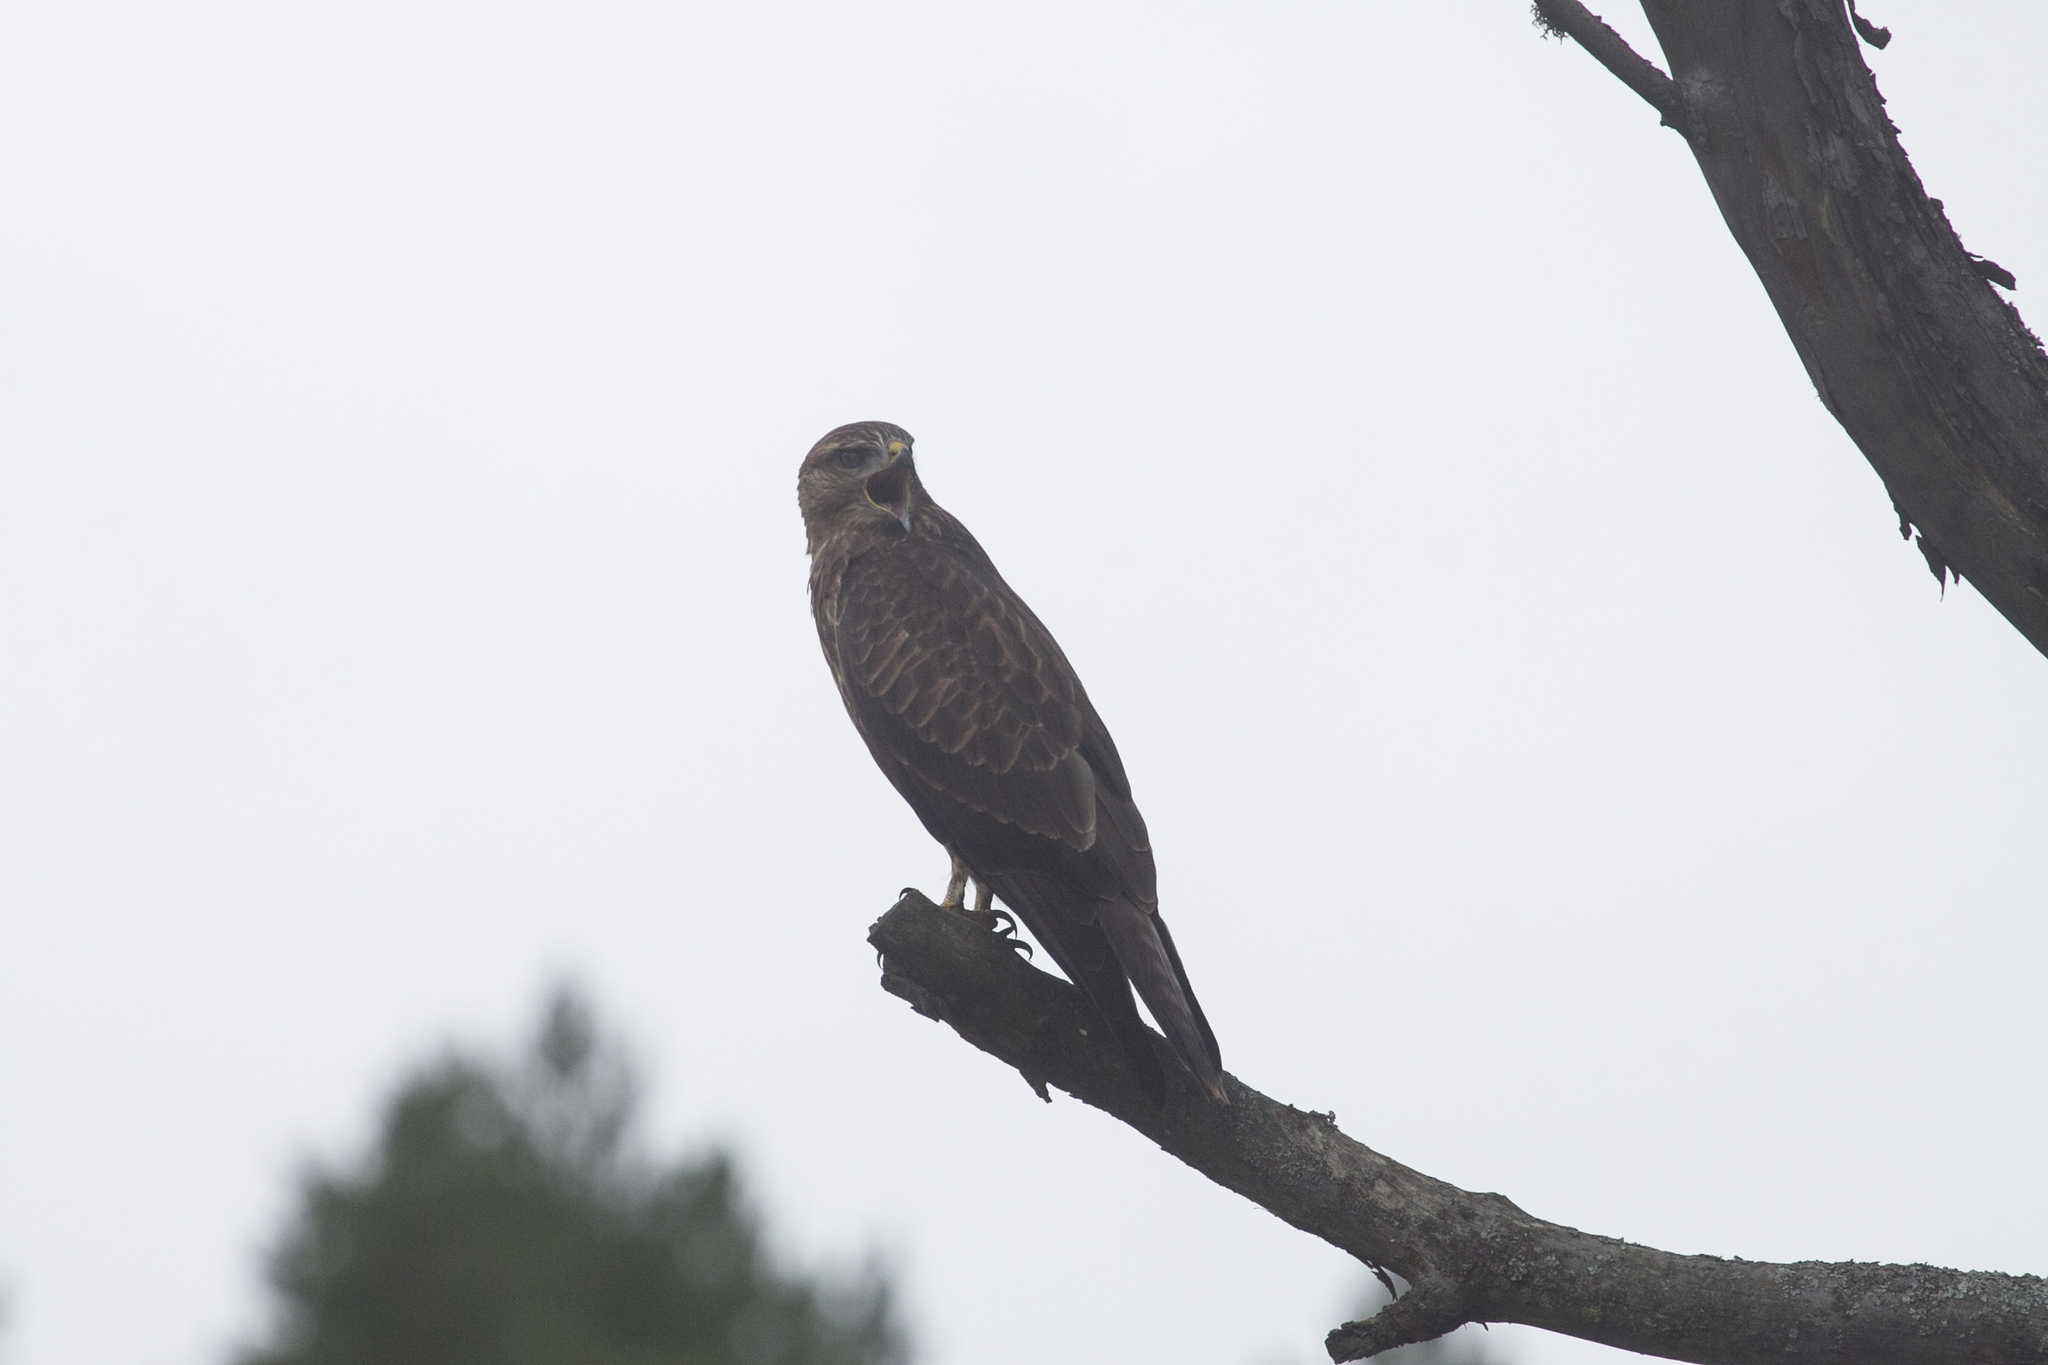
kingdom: Animalia
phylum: Chordata
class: Aves
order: Accipitriformes
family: Accipitridae
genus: Buteo
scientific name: Buteo buteo
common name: Common buzzard
